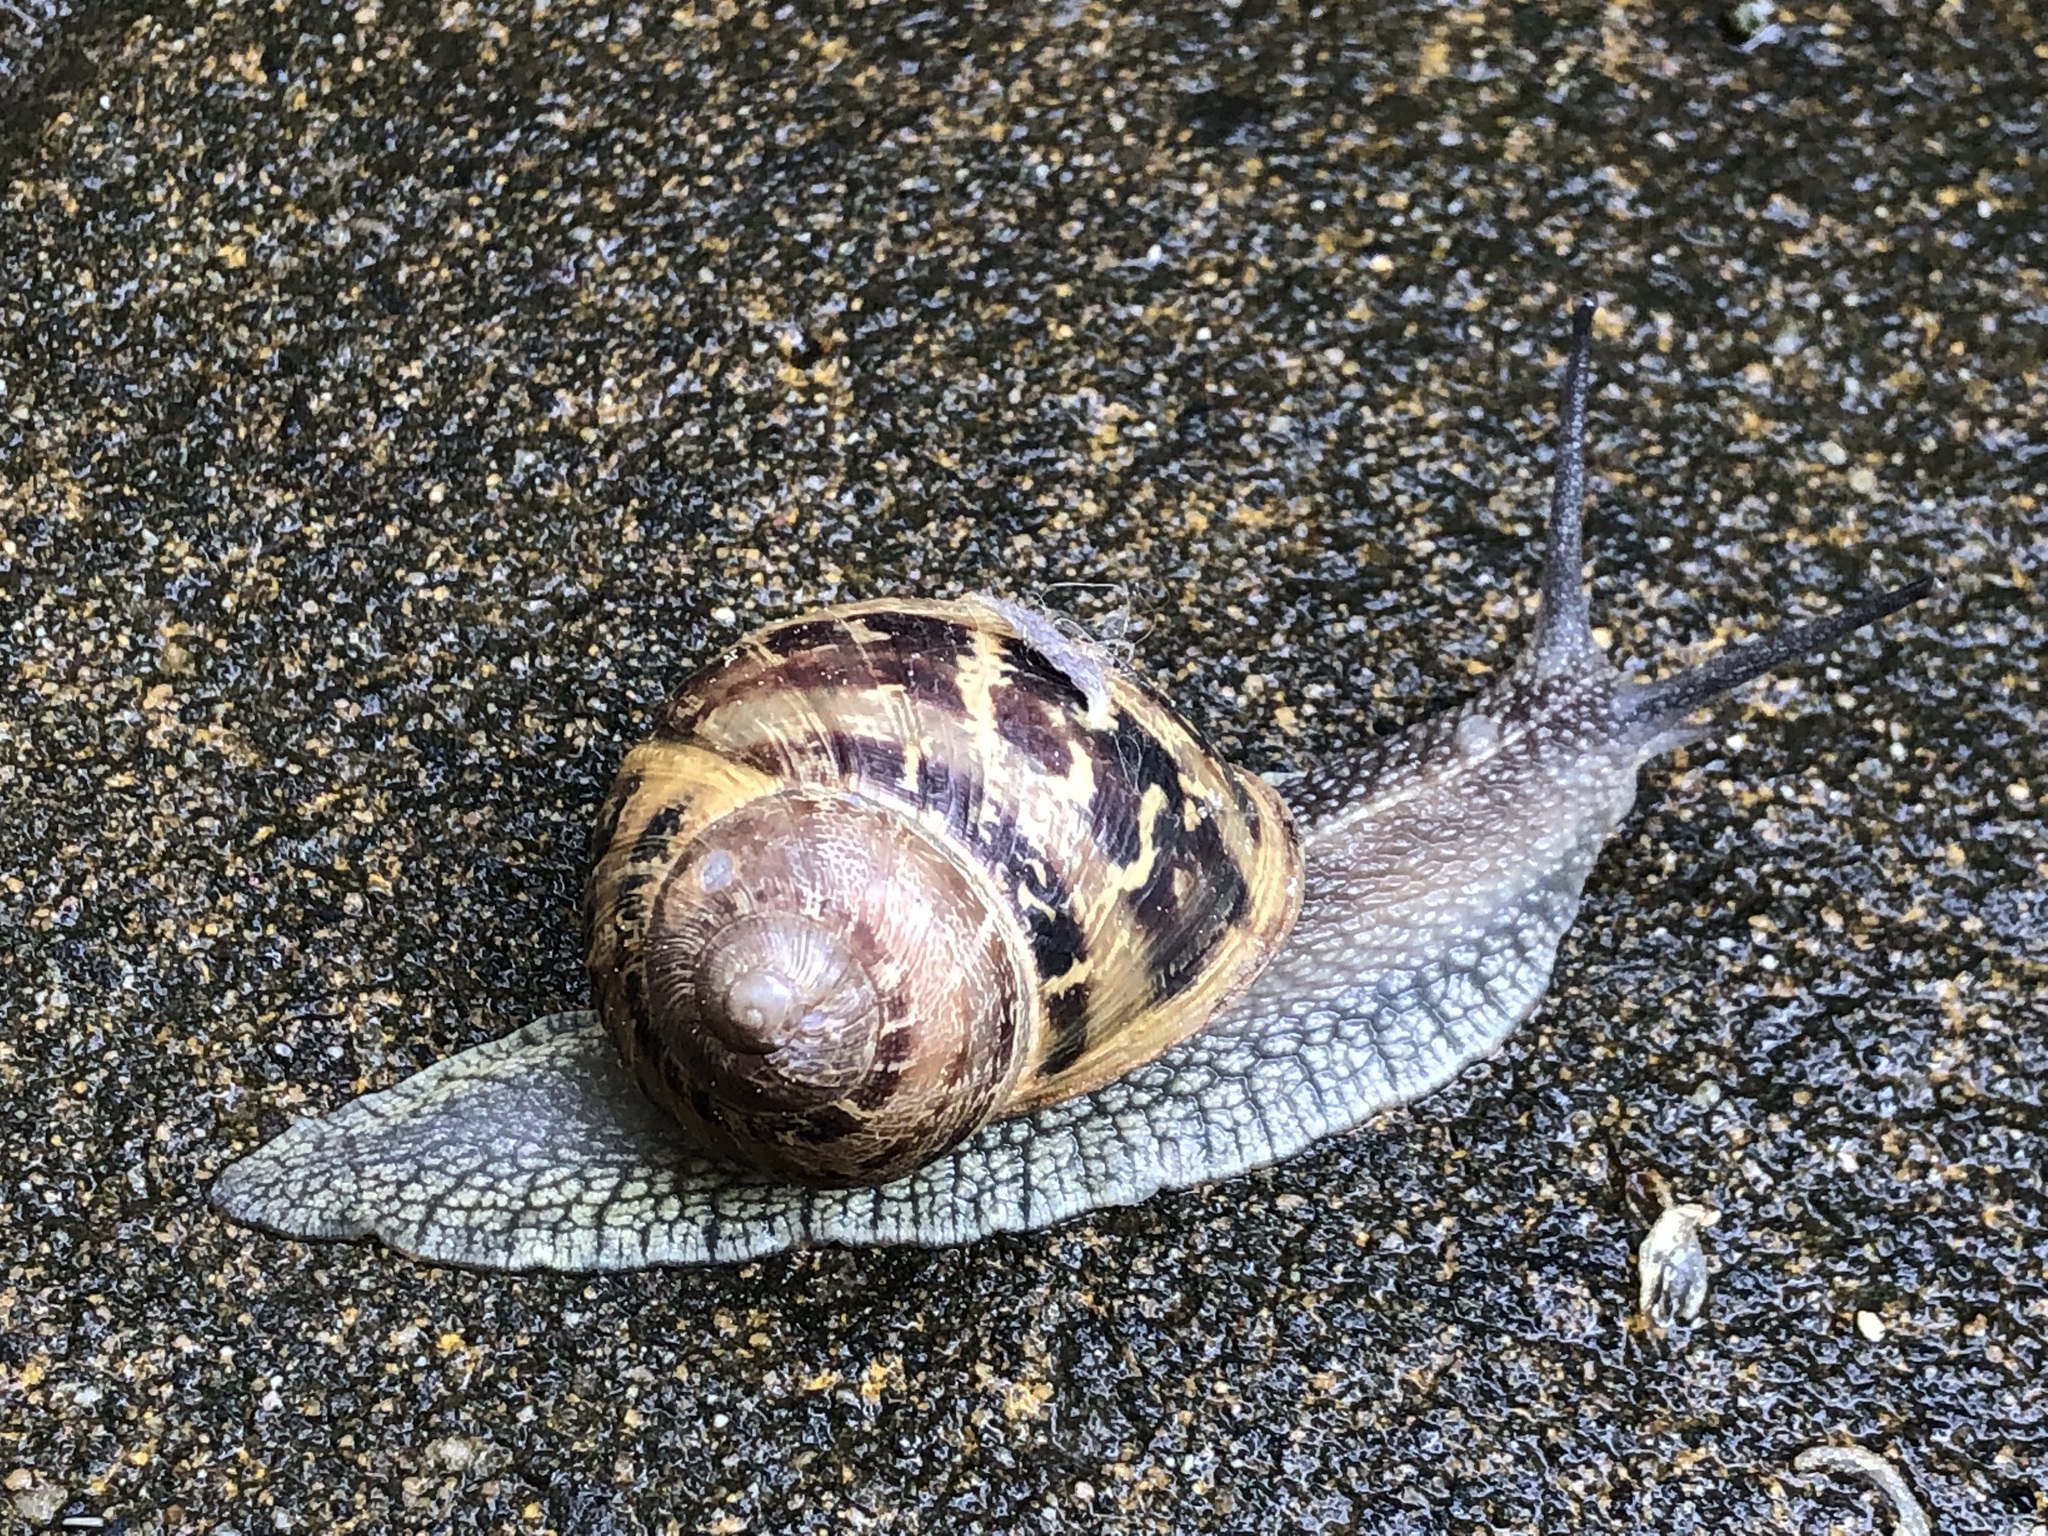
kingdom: Animalia
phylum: Mollusca
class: Gastropoda
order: Stylommatophora
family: Helicidae
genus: Cornu
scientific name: Cornu aspersum
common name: Brown garden snail
